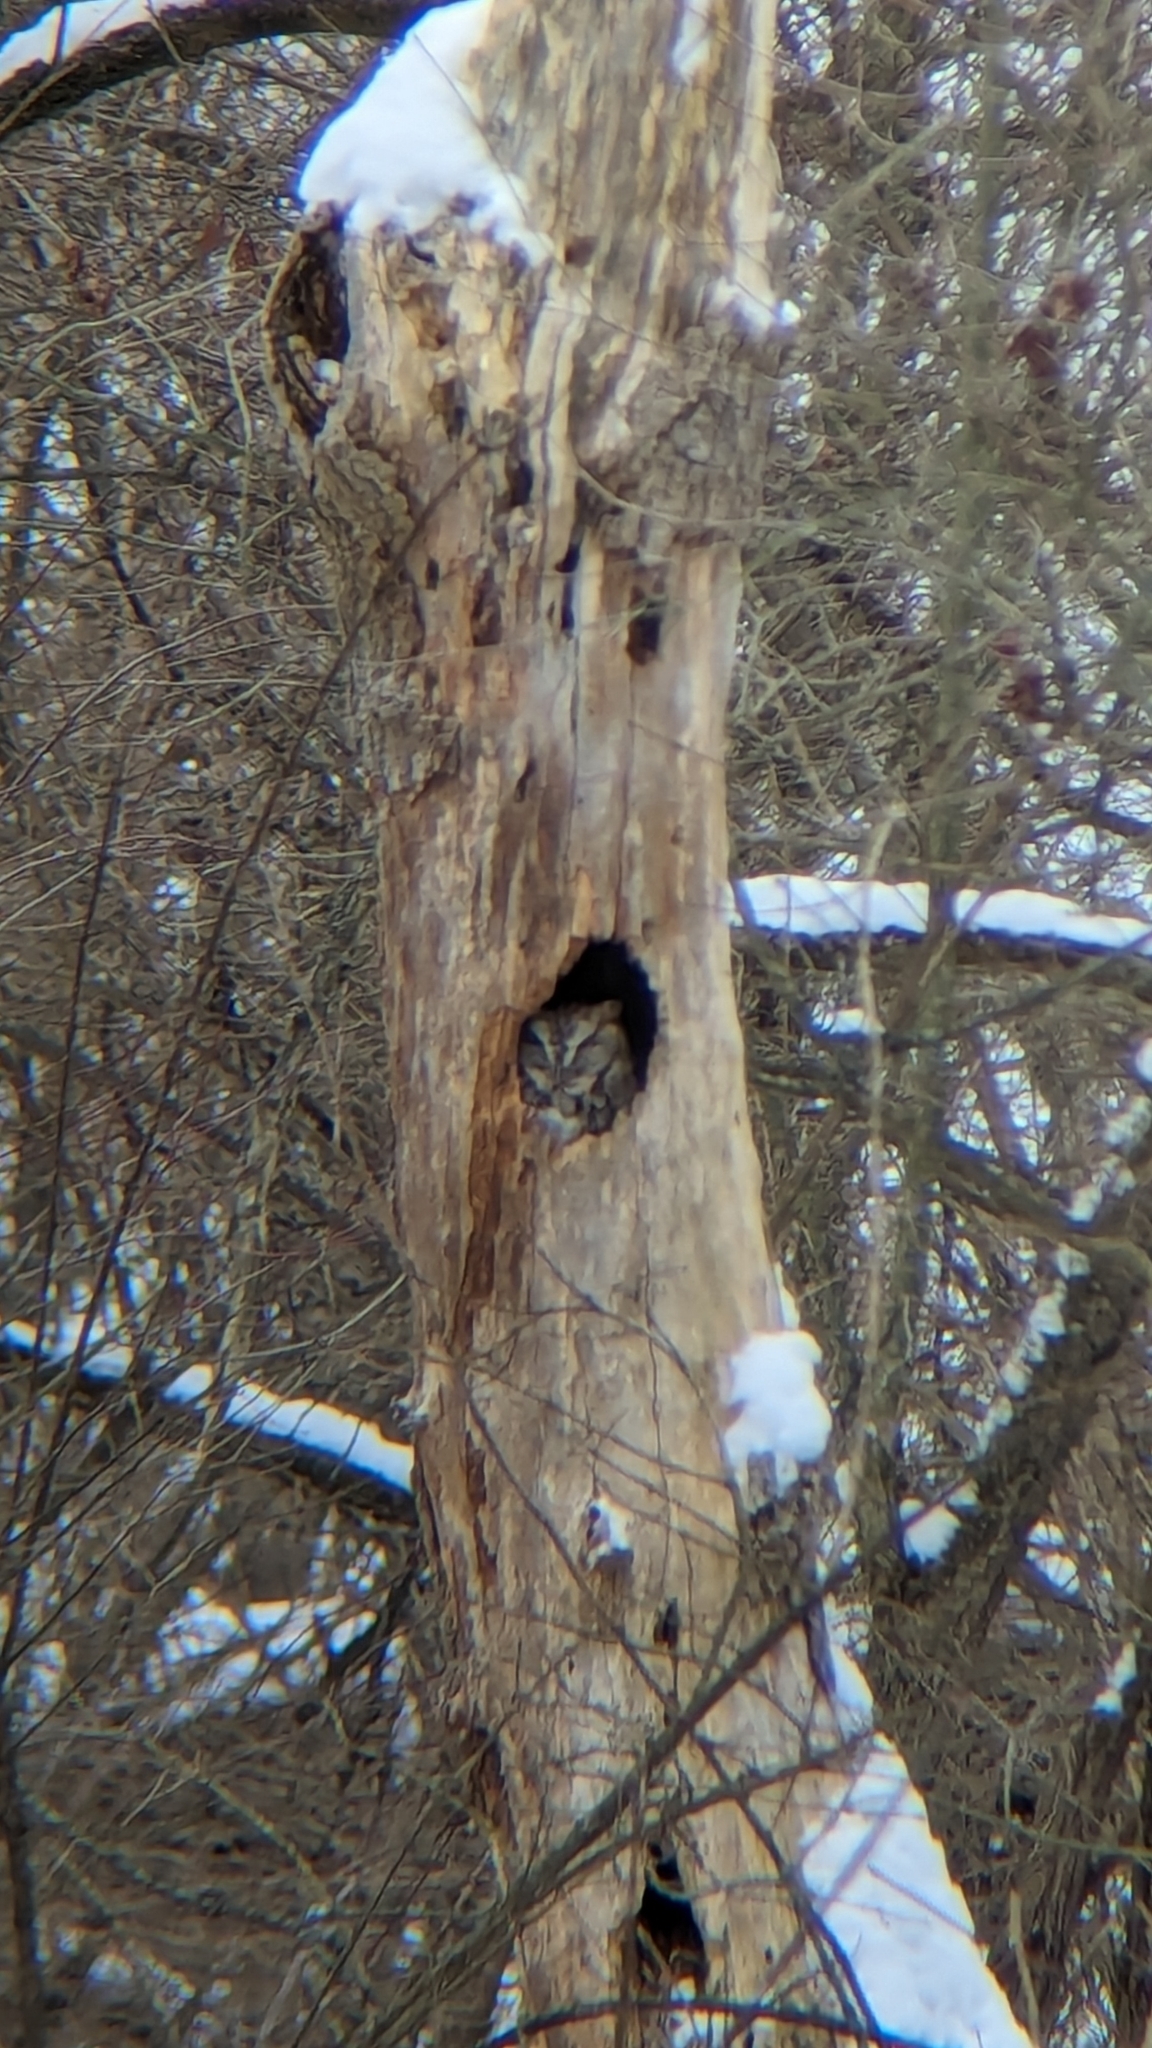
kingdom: Animalia
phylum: Chordata
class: Aves
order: Strigiformes
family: Strigidae
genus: Megascops
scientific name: Megascops asio
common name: Eastern screech-owl
